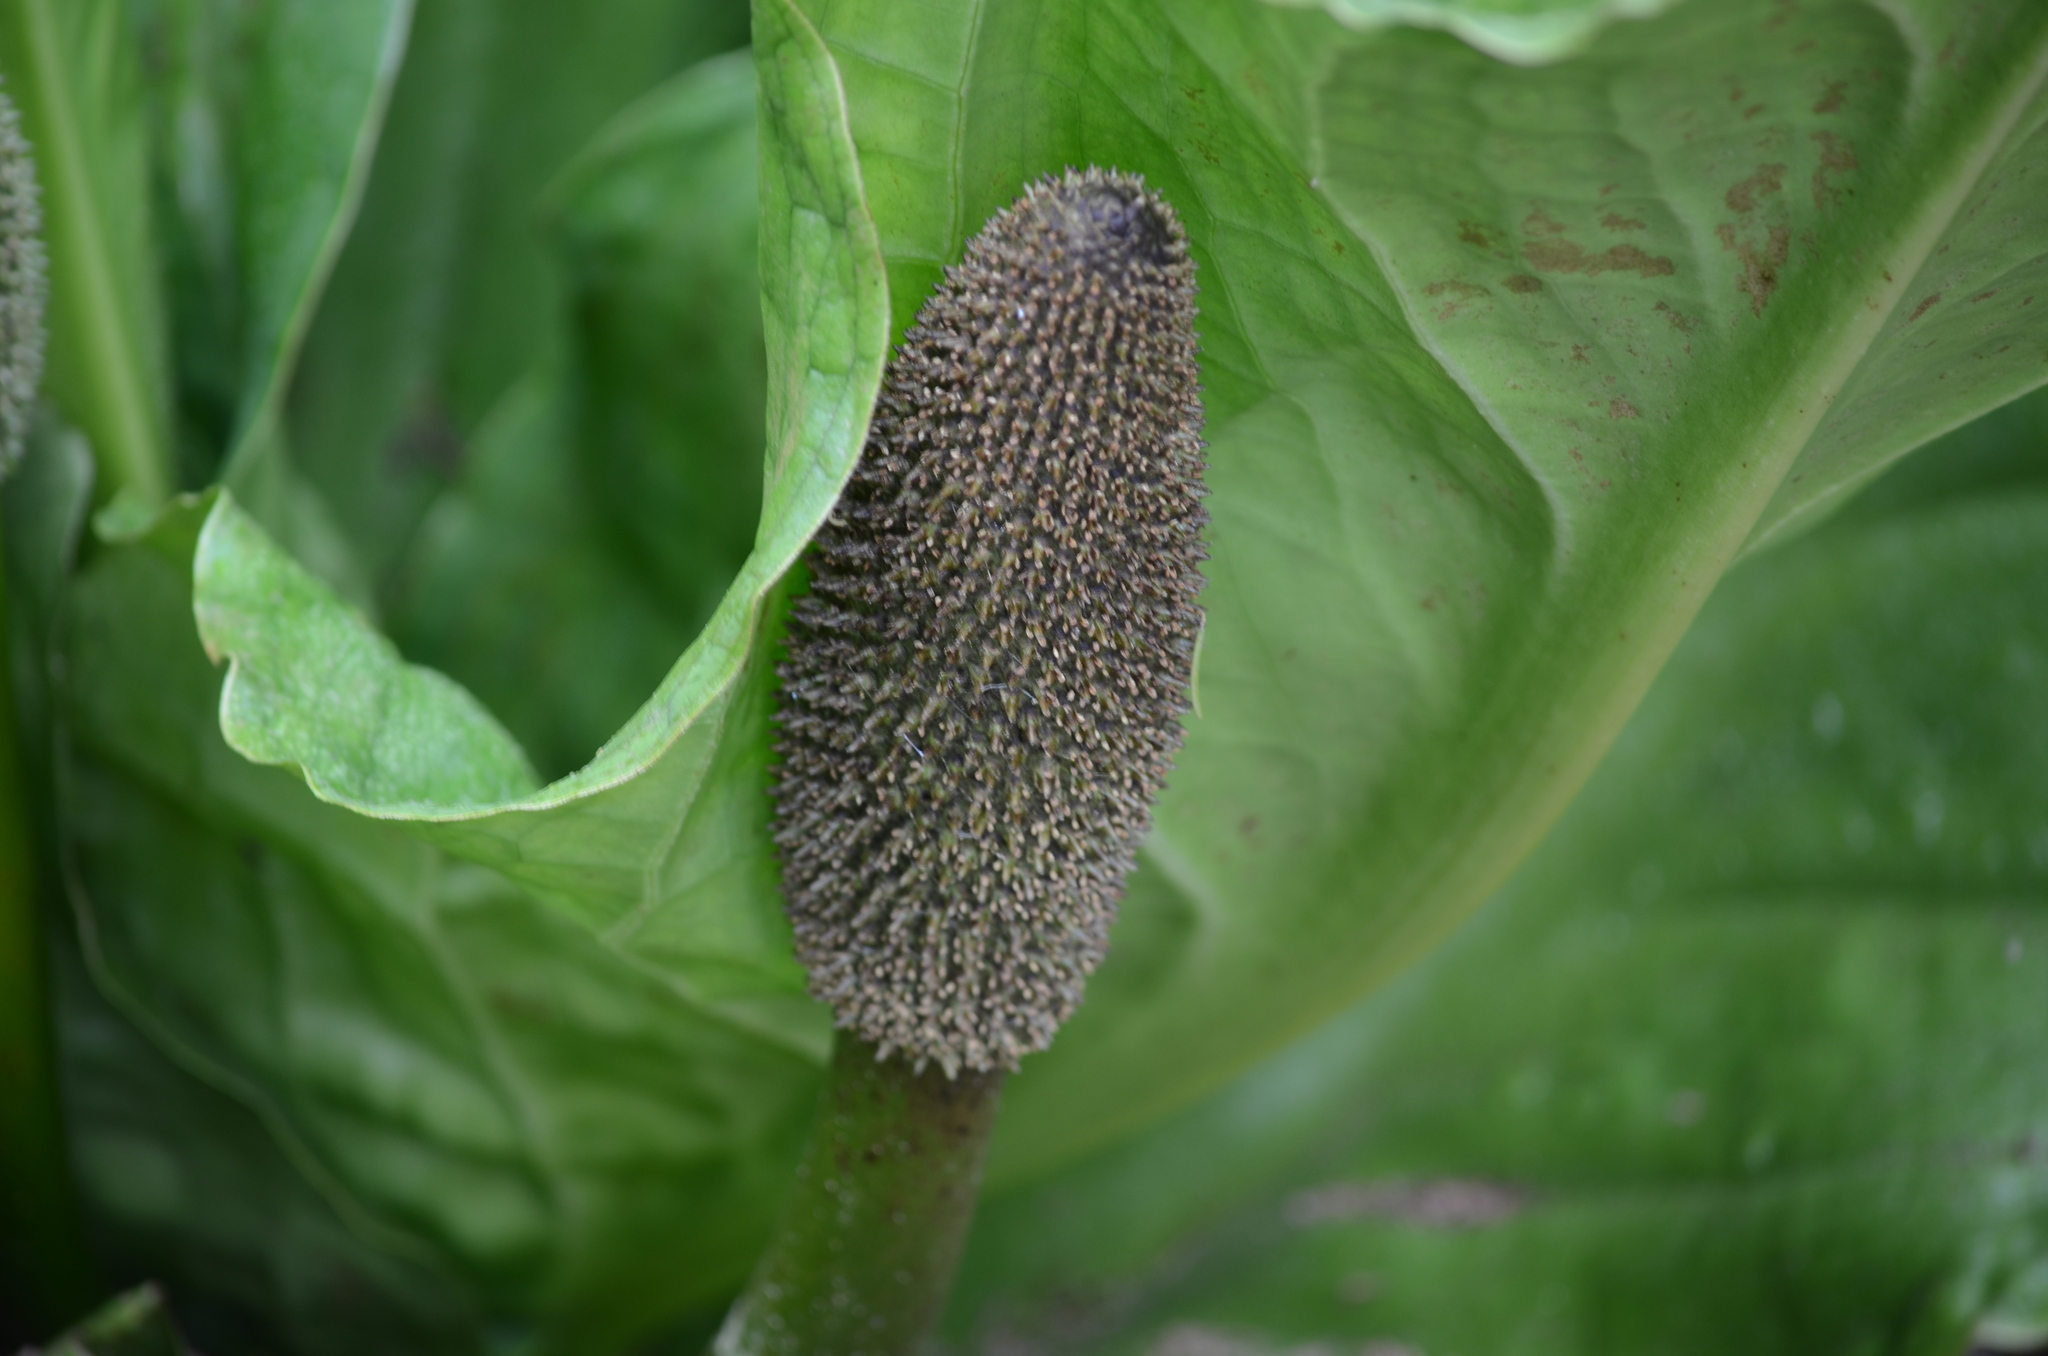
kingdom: Plantae
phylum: Tracheophyta
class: Liliopsida
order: Alismatales
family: Araceae
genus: Lysichiton
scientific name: Lysichiton americanus
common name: American skunk cabbage
